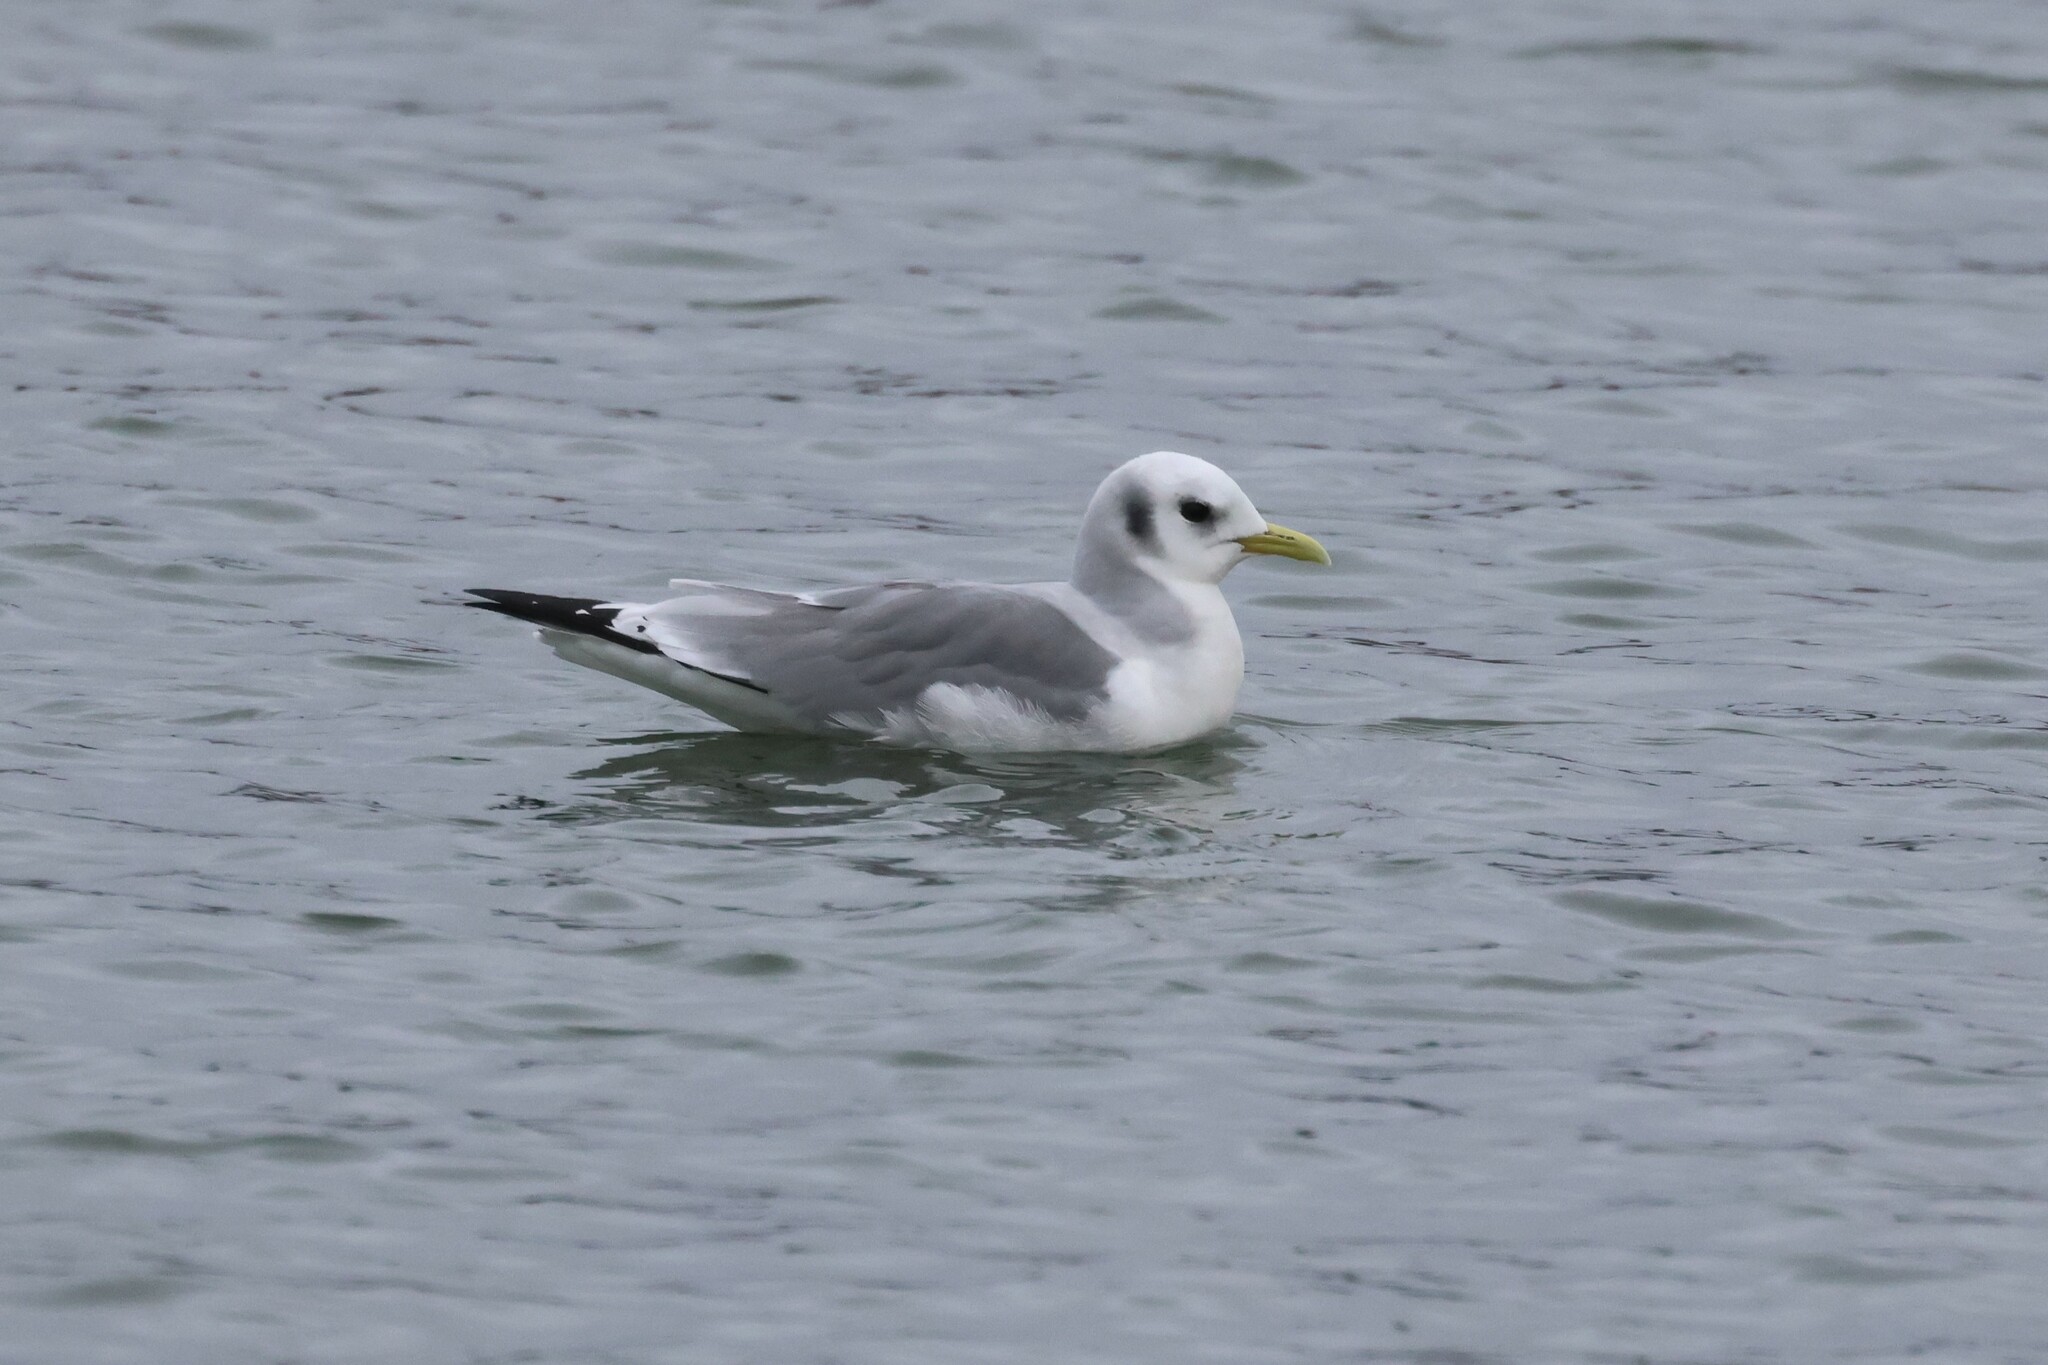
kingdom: Animalia
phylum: Chordata
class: Aves
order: Charadriiformes
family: Laridae
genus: Rissa
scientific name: Rissa tridactyla
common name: Black-legged kittiwake
